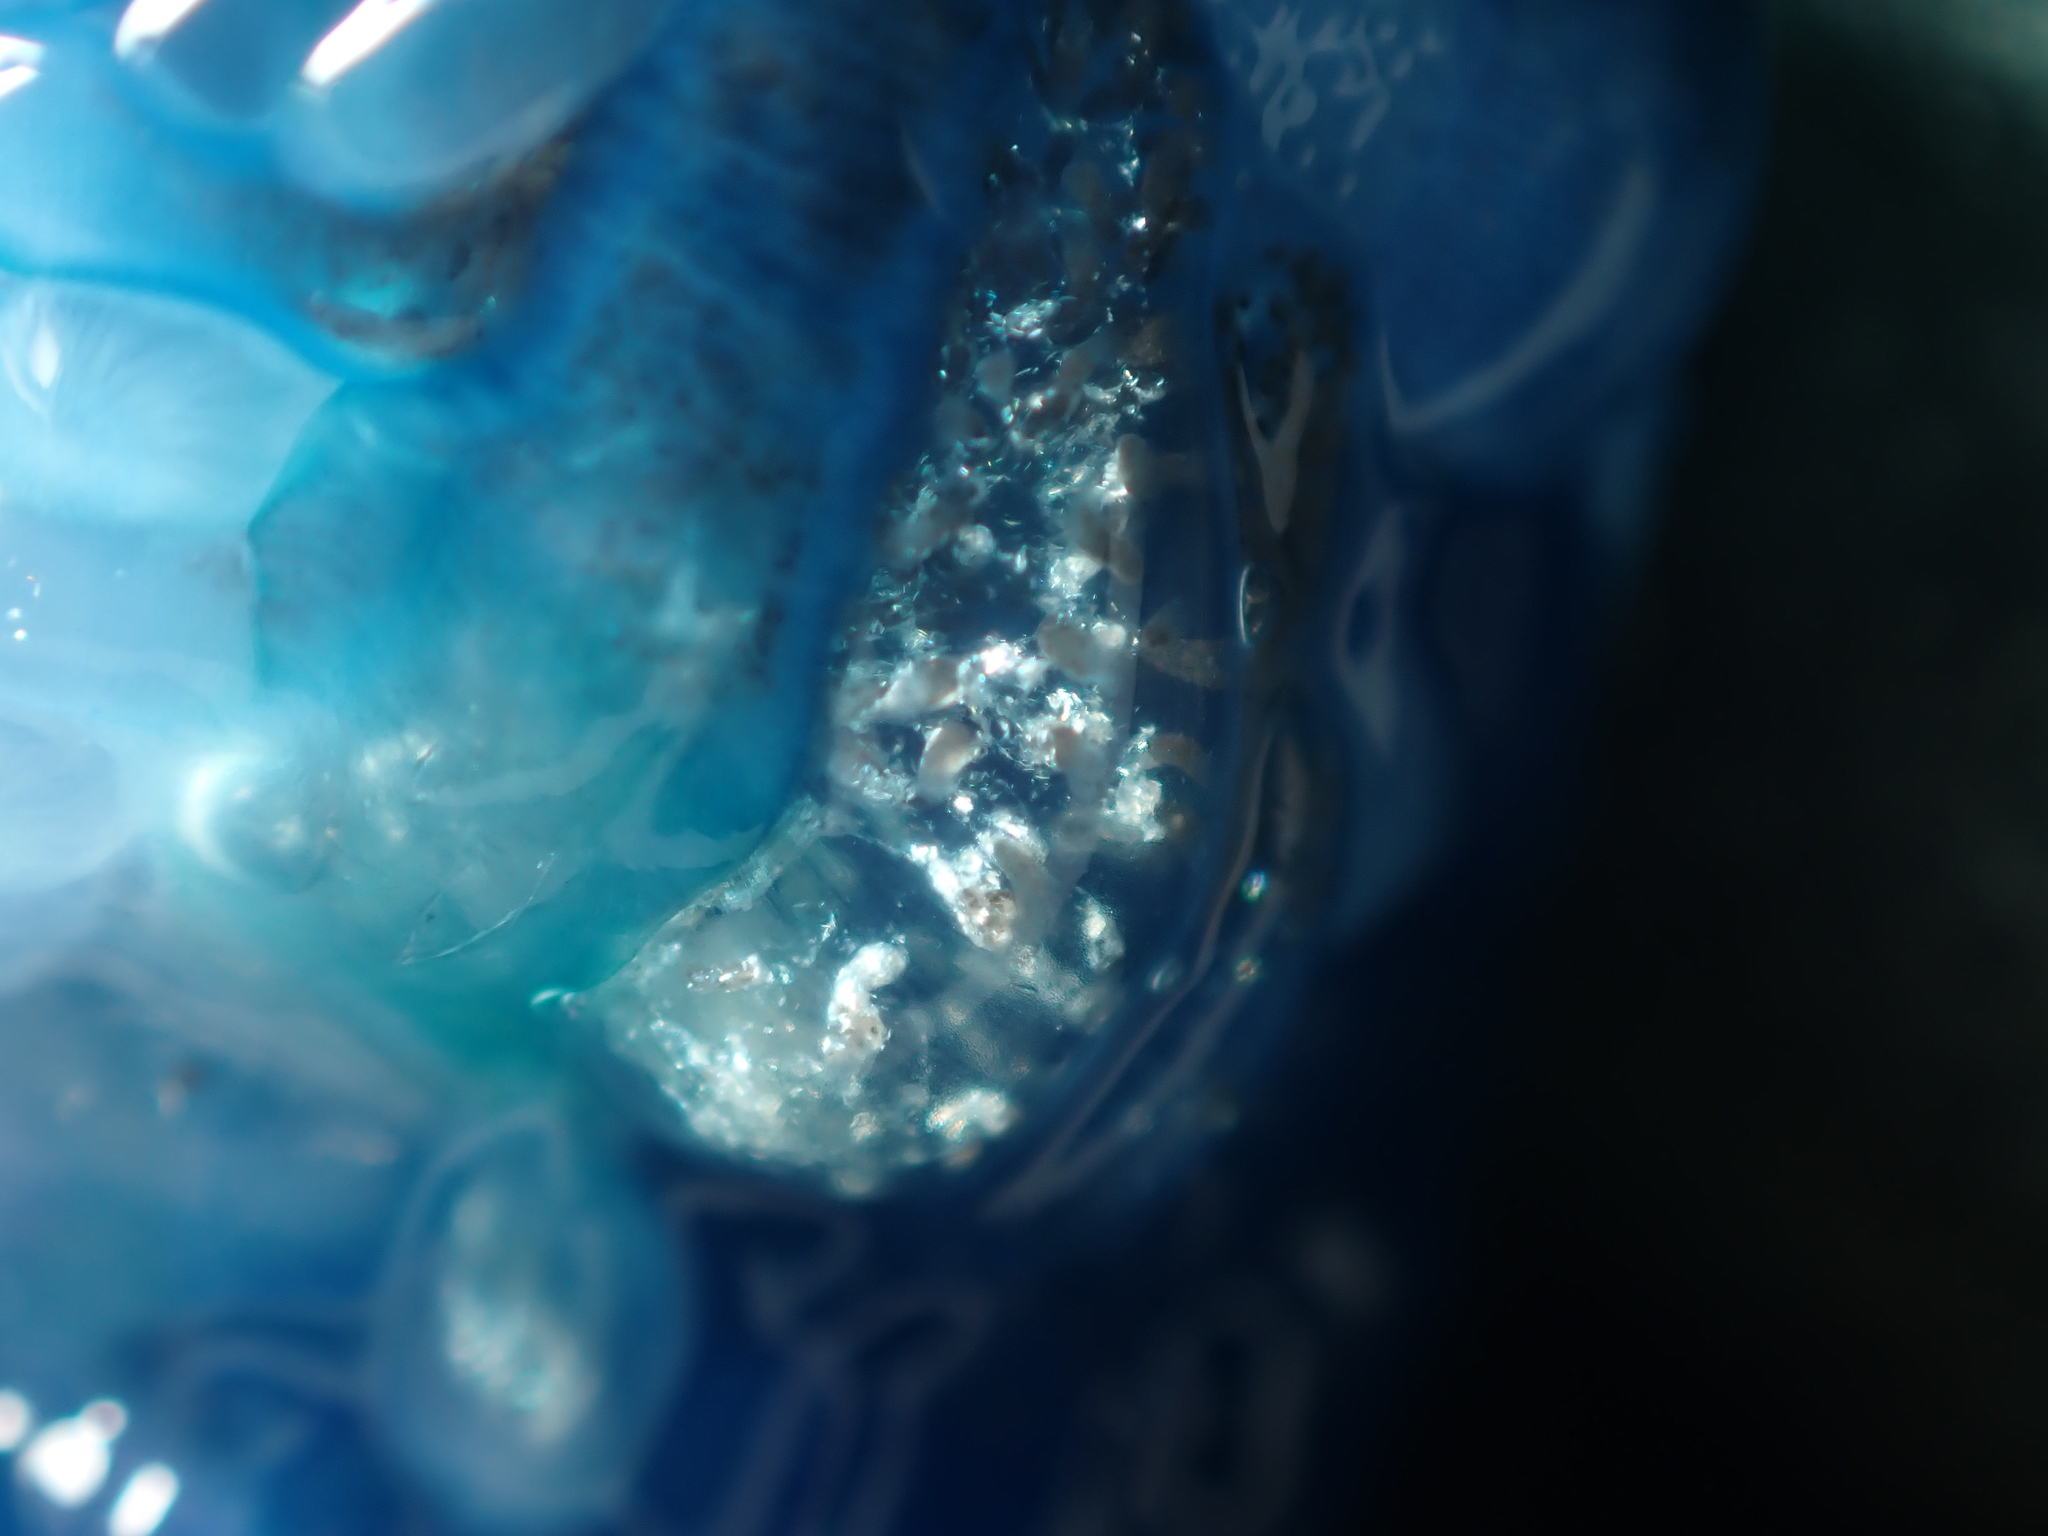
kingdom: Animalia
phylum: Cnidaria
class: Hydrozoa
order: Siphonophorae
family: Physaliidae
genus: Physalia
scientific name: Physalia physalis
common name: Portuguese man-of-war
